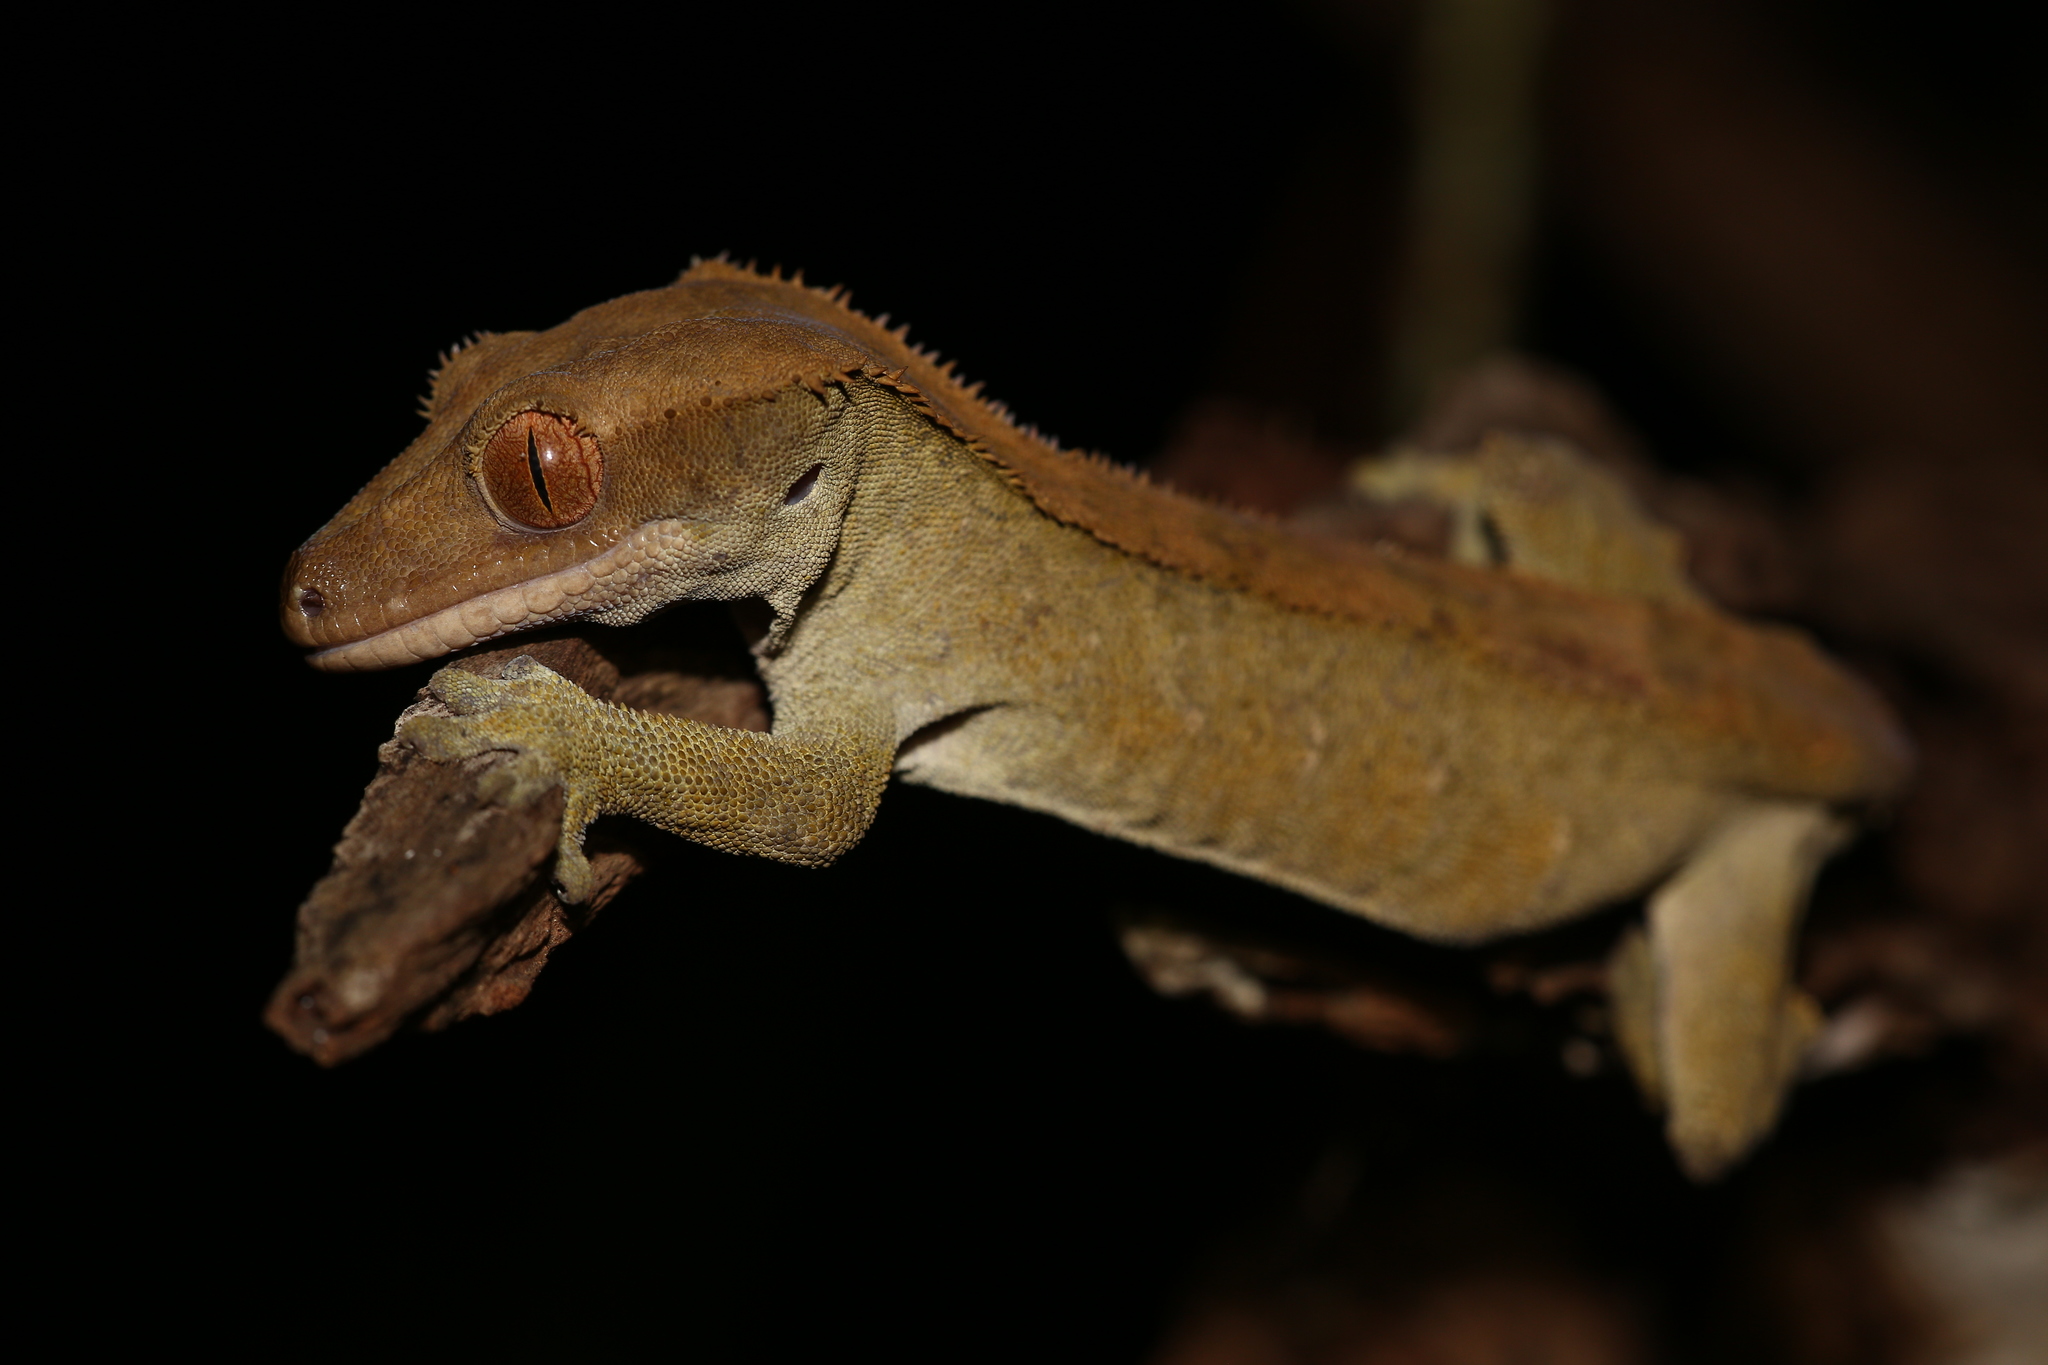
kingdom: Animalia
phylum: Chordata
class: Squamata
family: Diplodactylidae
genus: Correlophus
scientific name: Correlophus ciliatus
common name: Crested gecko
